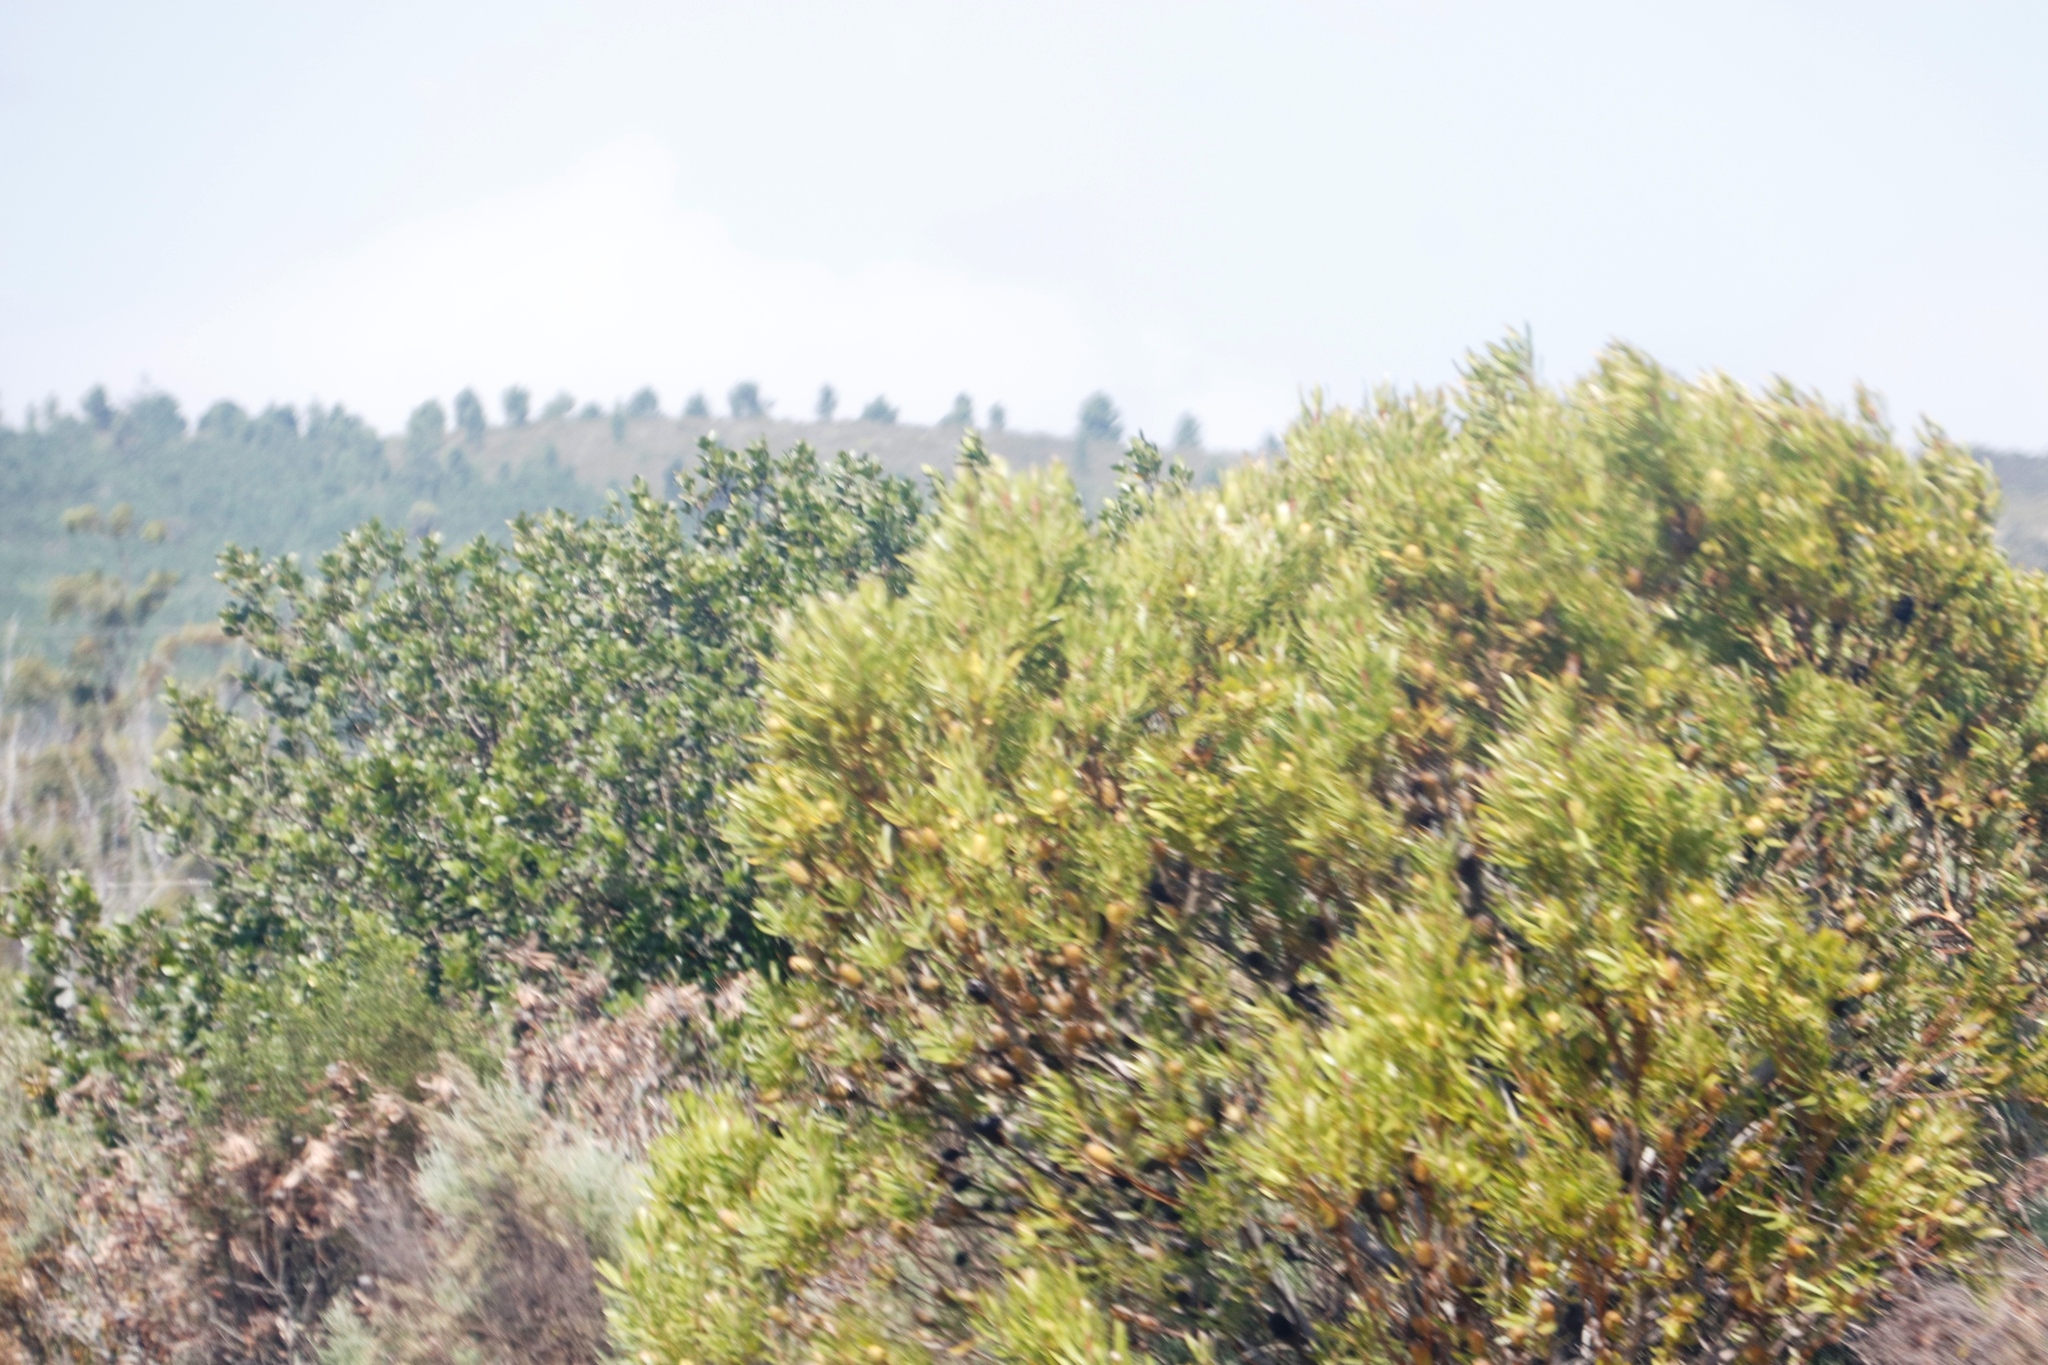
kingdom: Plantae
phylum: Tracheophyta
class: Magnoliopsida
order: Proteales
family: Proteaceae
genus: Leucadendron
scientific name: Leucadendron eucalyptifolium
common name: Gum-leaved conebush
